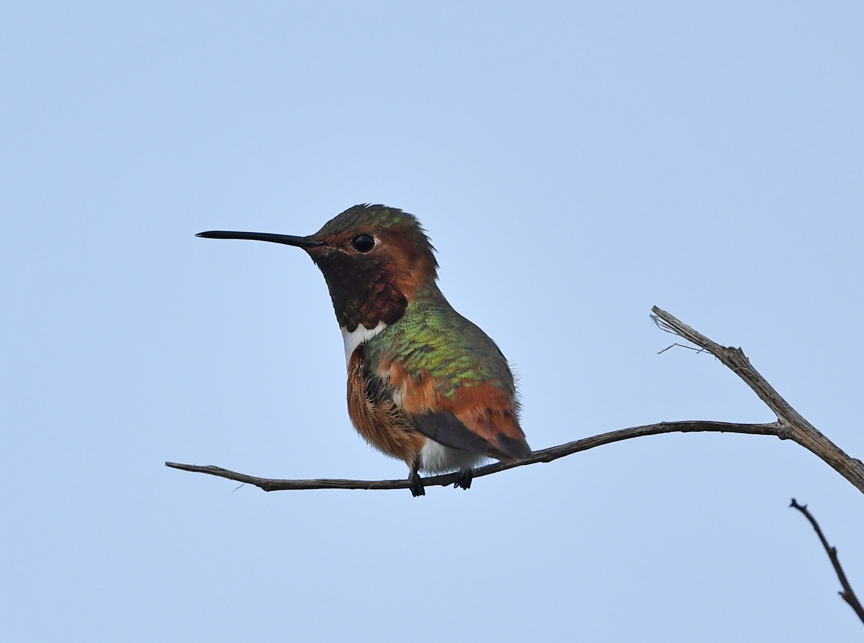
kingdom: Animalia
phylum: Chordata
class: Aves
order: Apodiformes
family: Trochilidae
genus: Selasphorus
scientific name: Selasphorus sasin
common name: Allen's hummingbird
